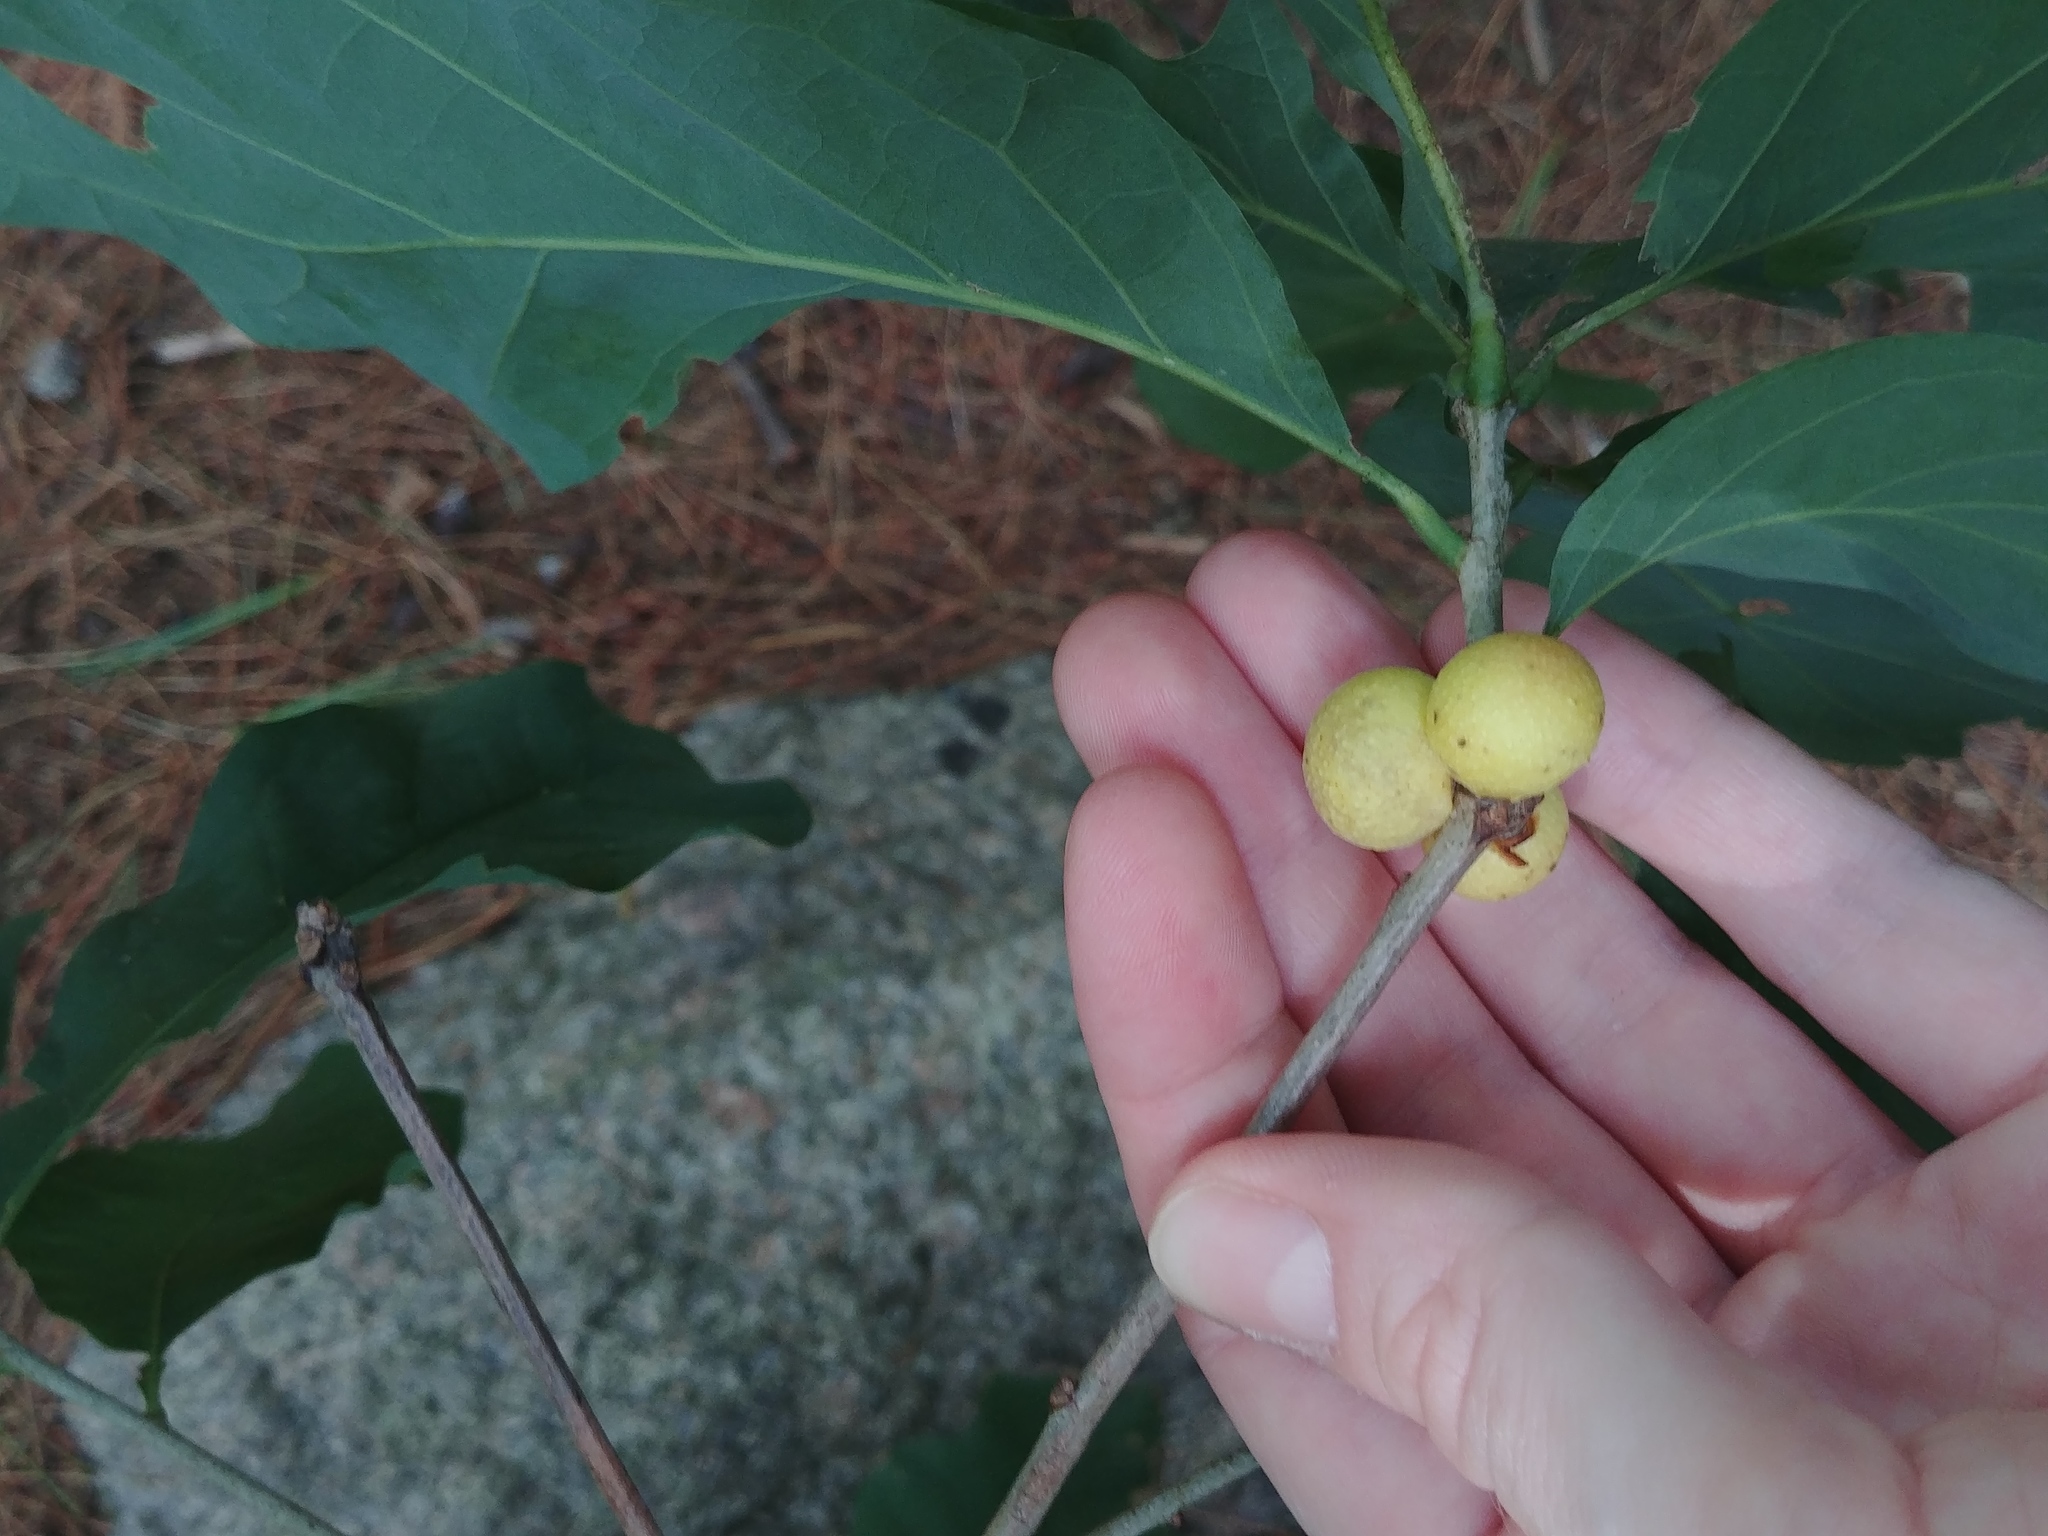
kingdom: Animalia
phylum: Arthropoda
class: Insecta
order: Hymenoptera
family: Cynipidae
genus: Disholcaspis
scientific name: Disholcaspis quercusglobulus
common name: Round bullet gall wasp
